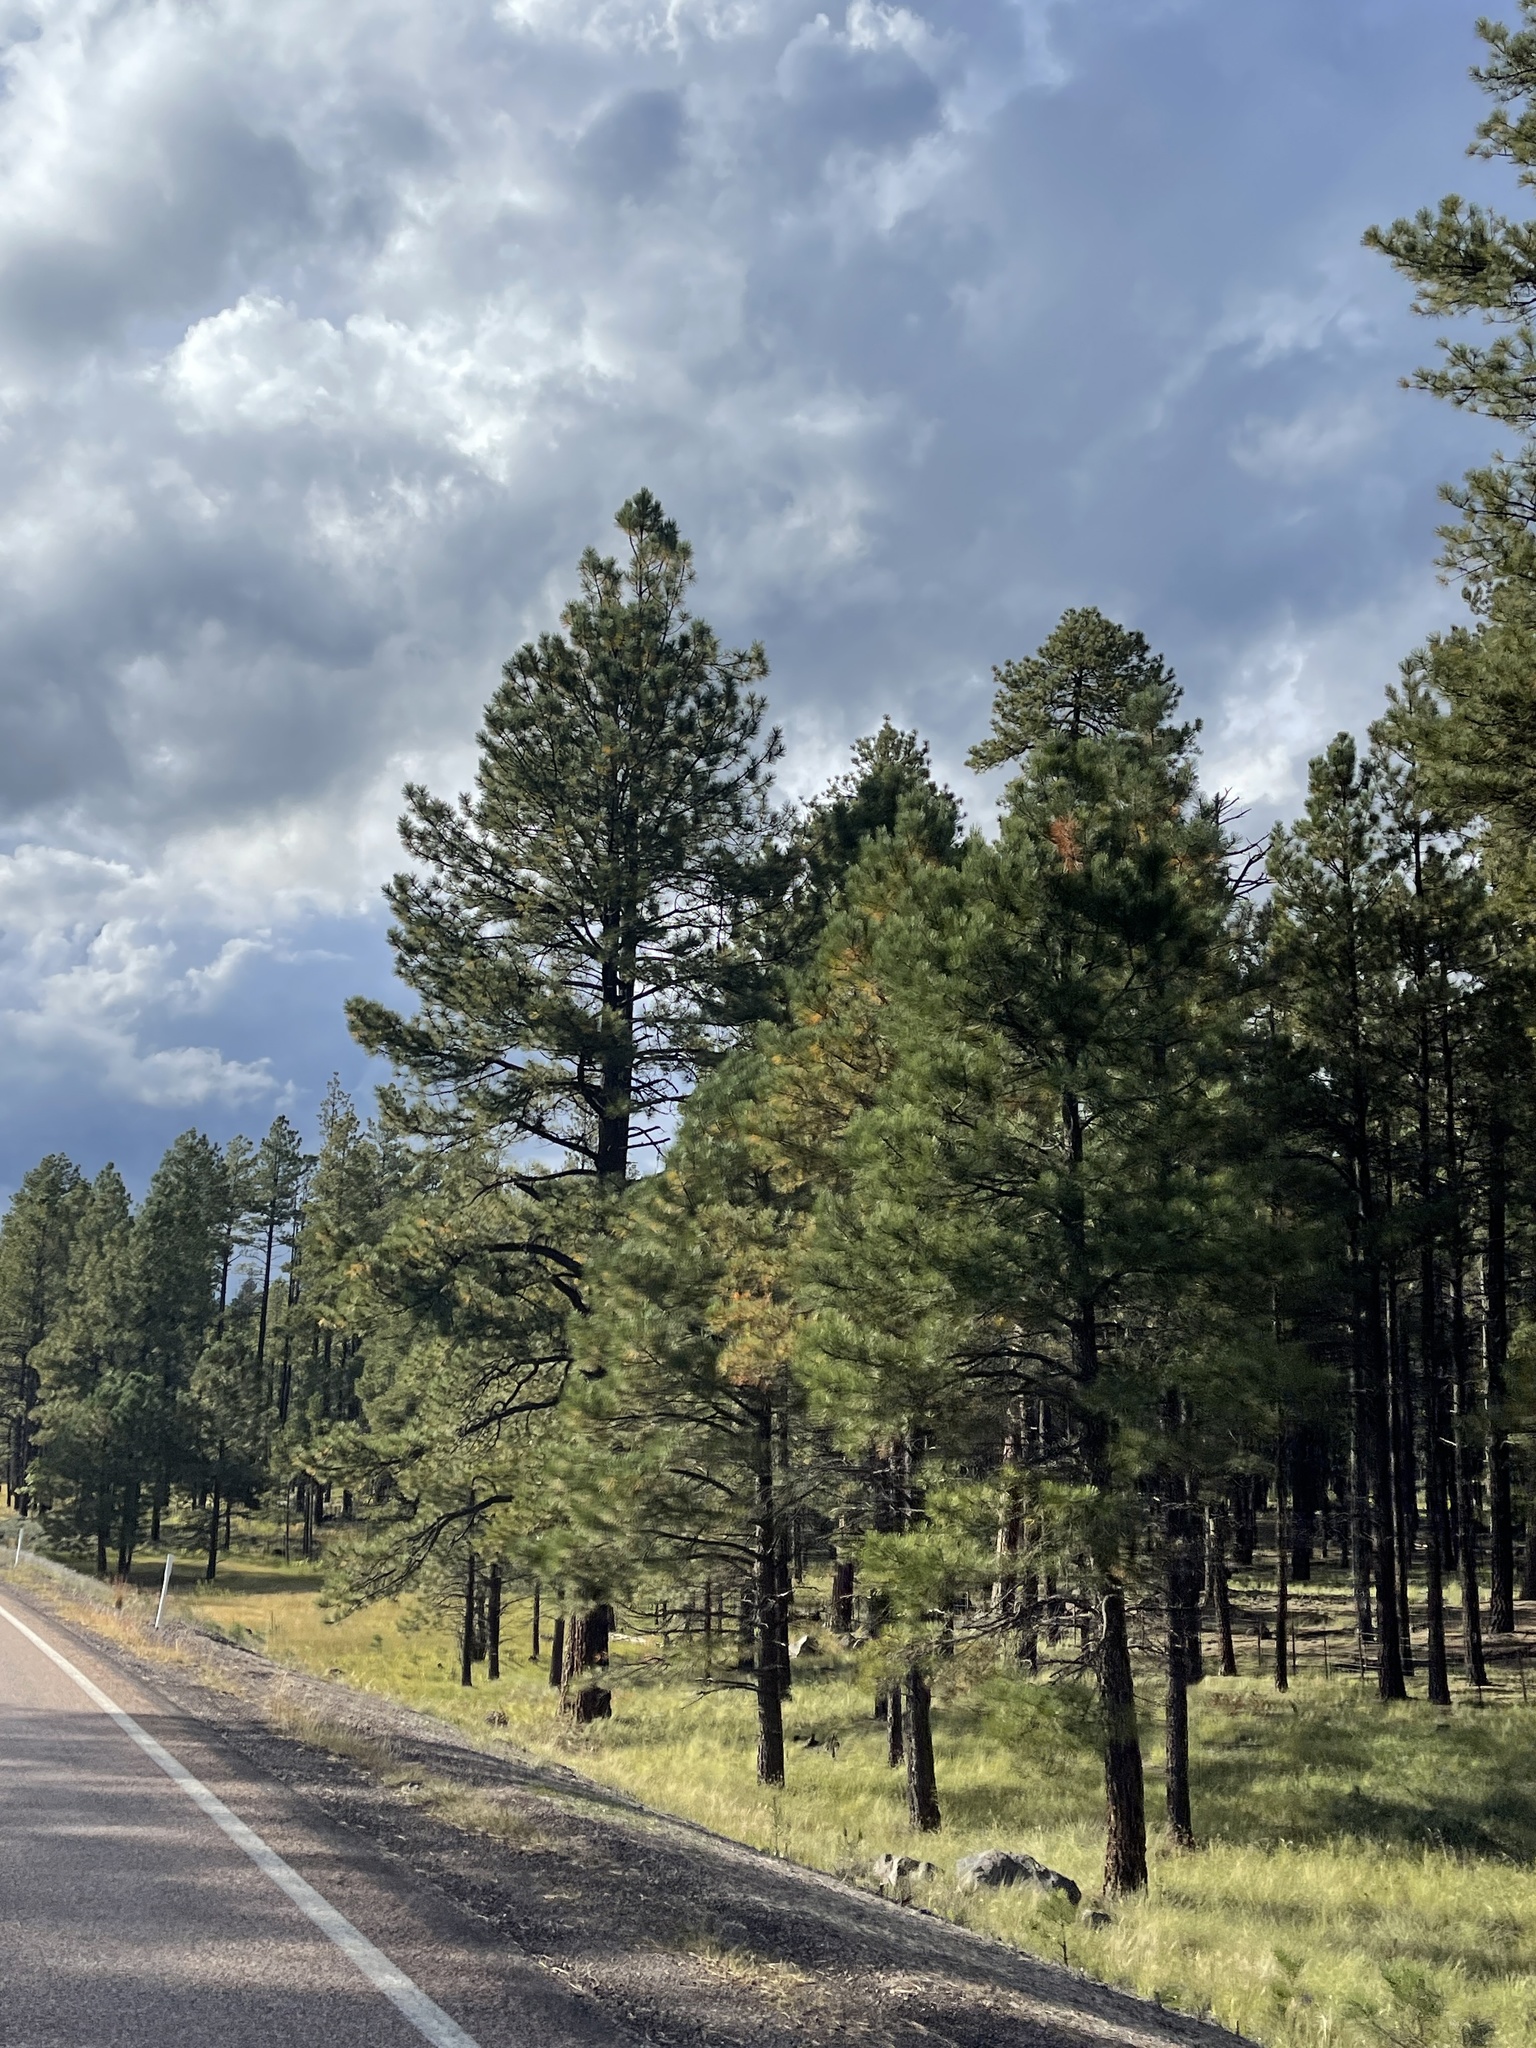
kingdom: Plantae
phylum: Tracheophyta
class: Pinopsida
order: Pinales
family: Pinaceae
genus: Pinus
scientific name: Pinus ponderosa
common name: Western yellow-pine
